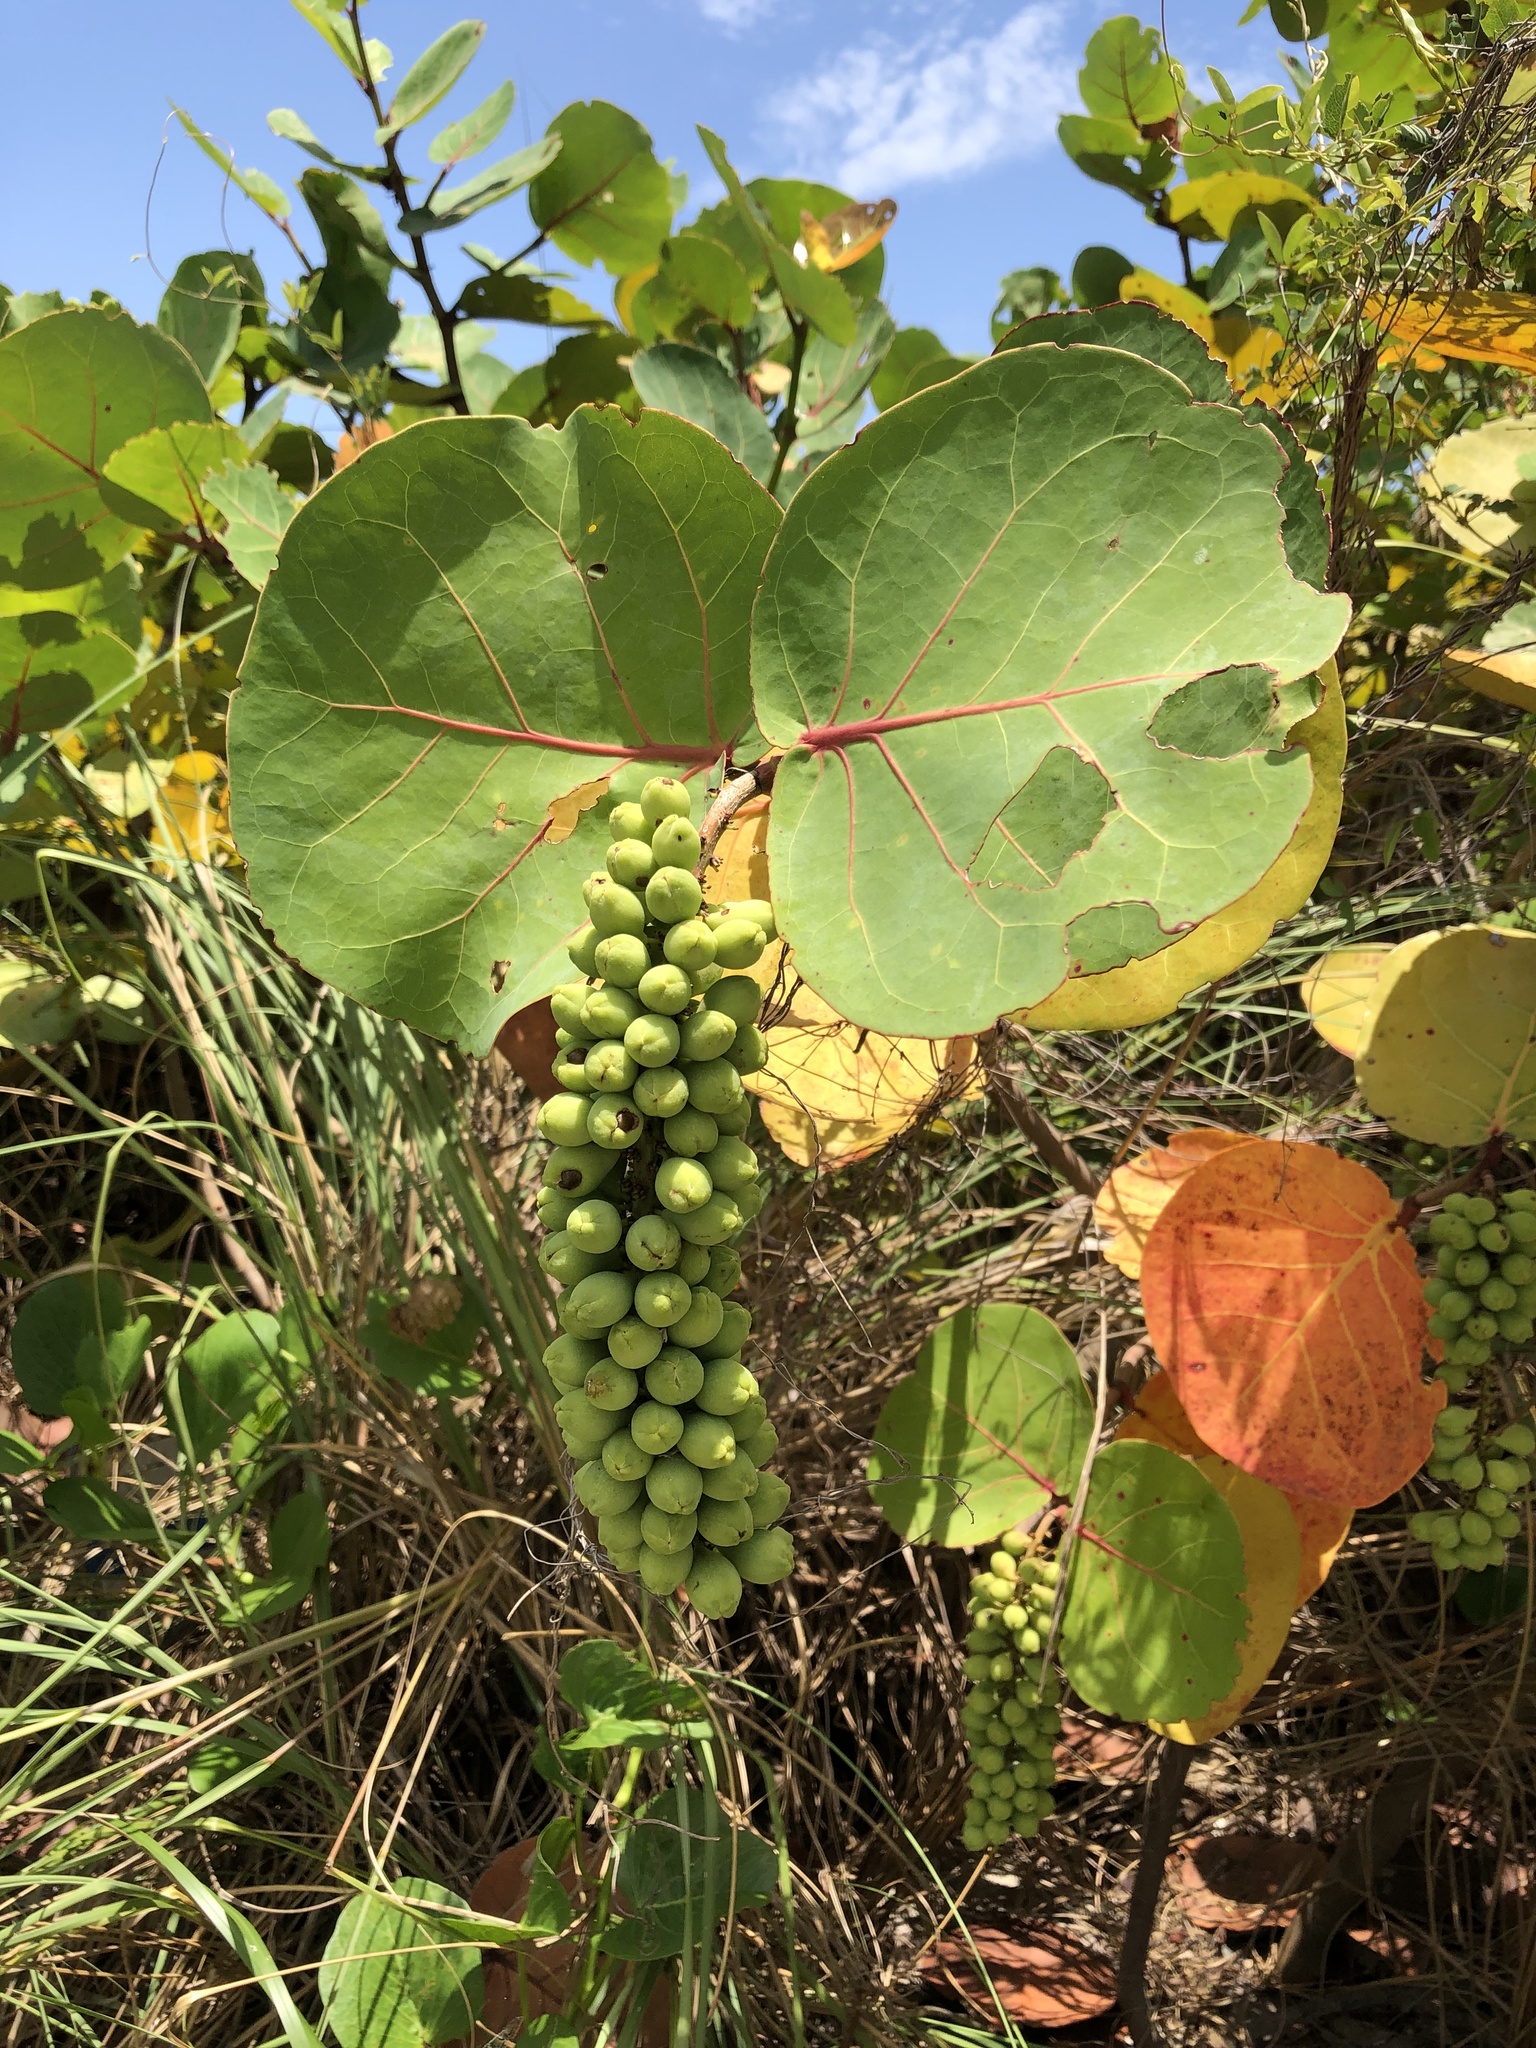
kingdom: Plantae
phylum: Tracheophyta
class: Magnoliopsida
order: Caryophyllales
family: Polygonaceae
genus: Coccoloba
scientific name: Coccoloba uvifera
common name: Seagrape
